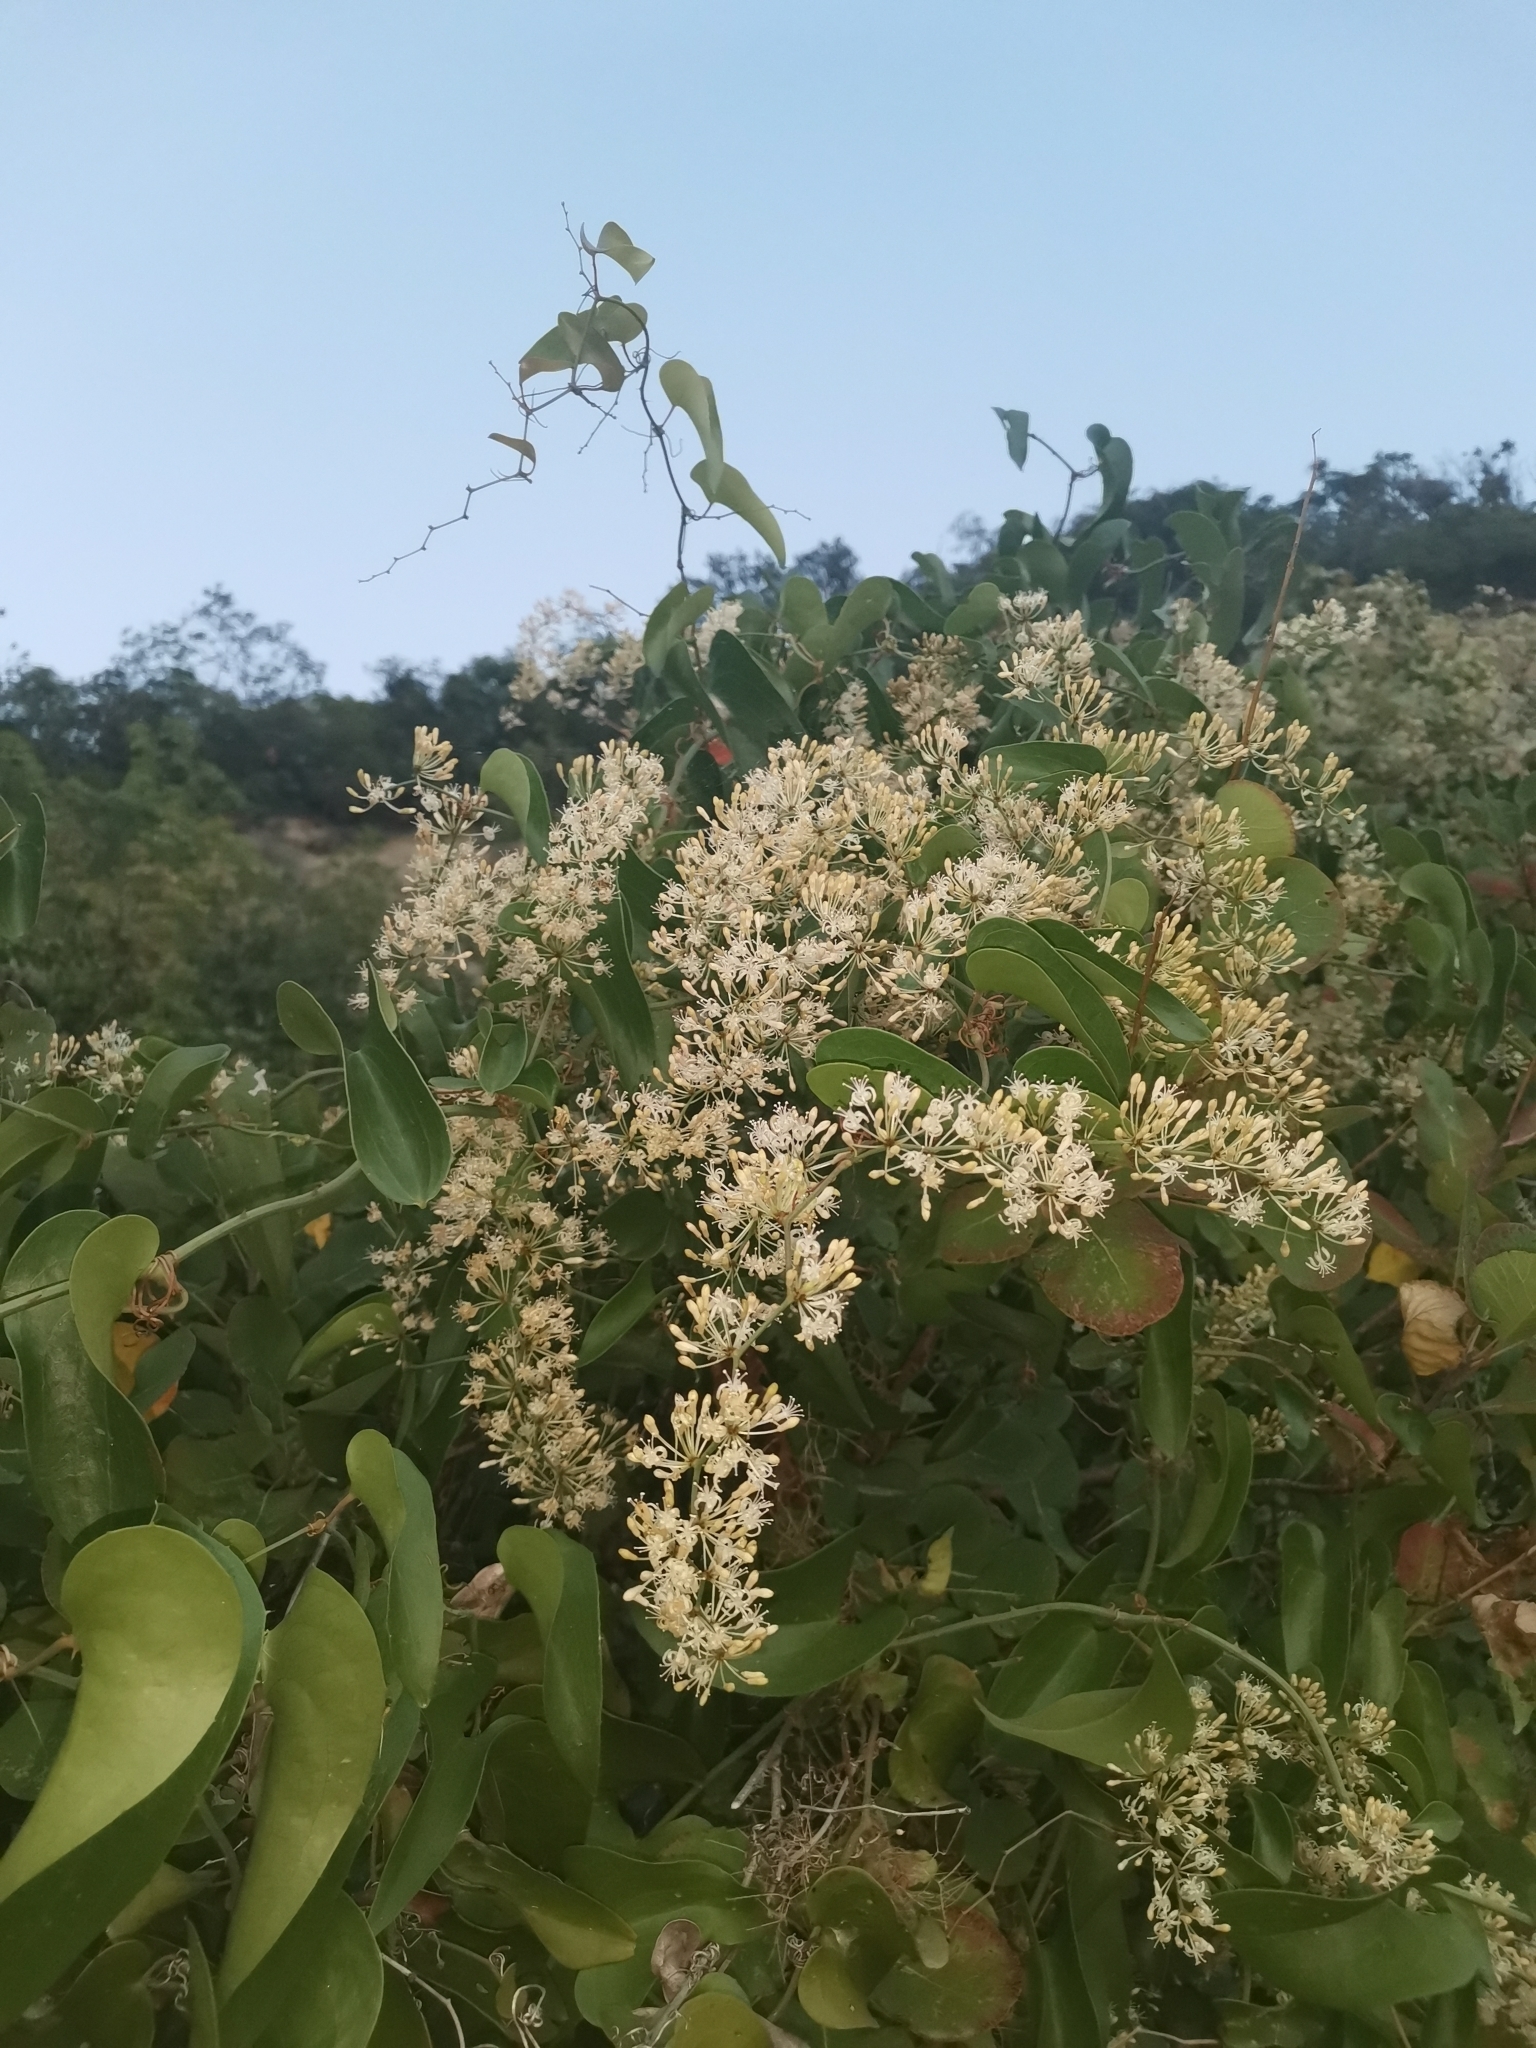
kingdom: Plantae
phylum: Tracheophyta
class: Liliopsida
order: Liliales
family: Smilacaceae
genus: Smilax
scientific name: Smilax aspera
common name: Common smilax
